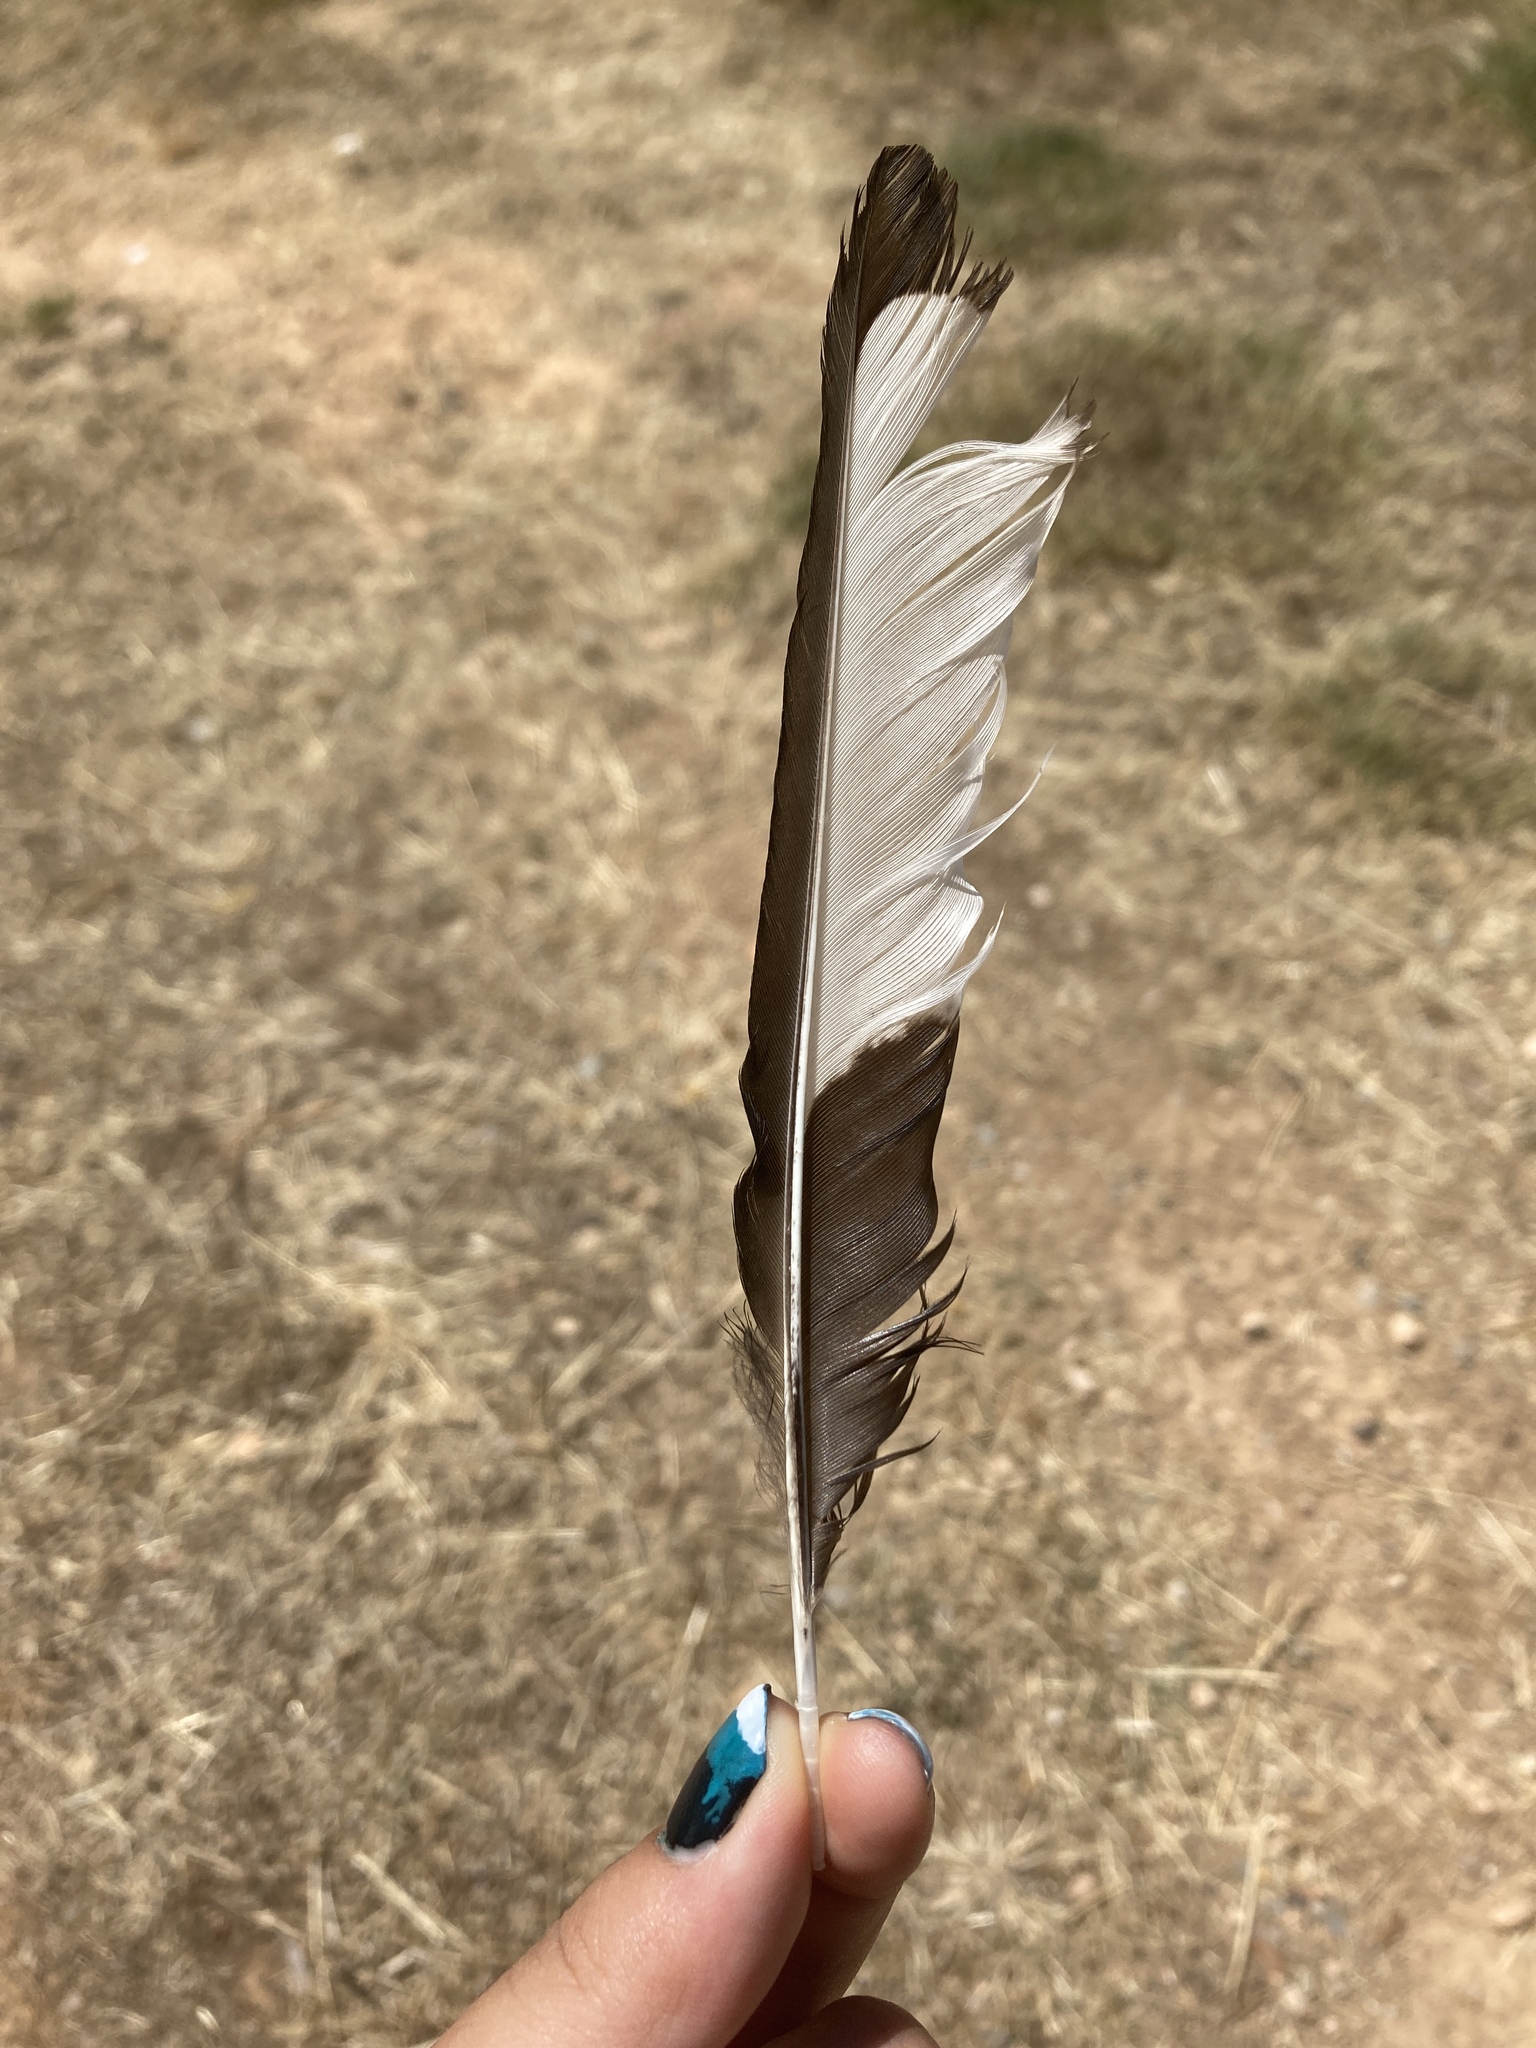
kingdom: Animalia
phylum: Chordata
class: Aves
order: Passeriformes
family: Corvidae
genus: Pica
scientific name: Pica pica
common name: Eurasian magpie
